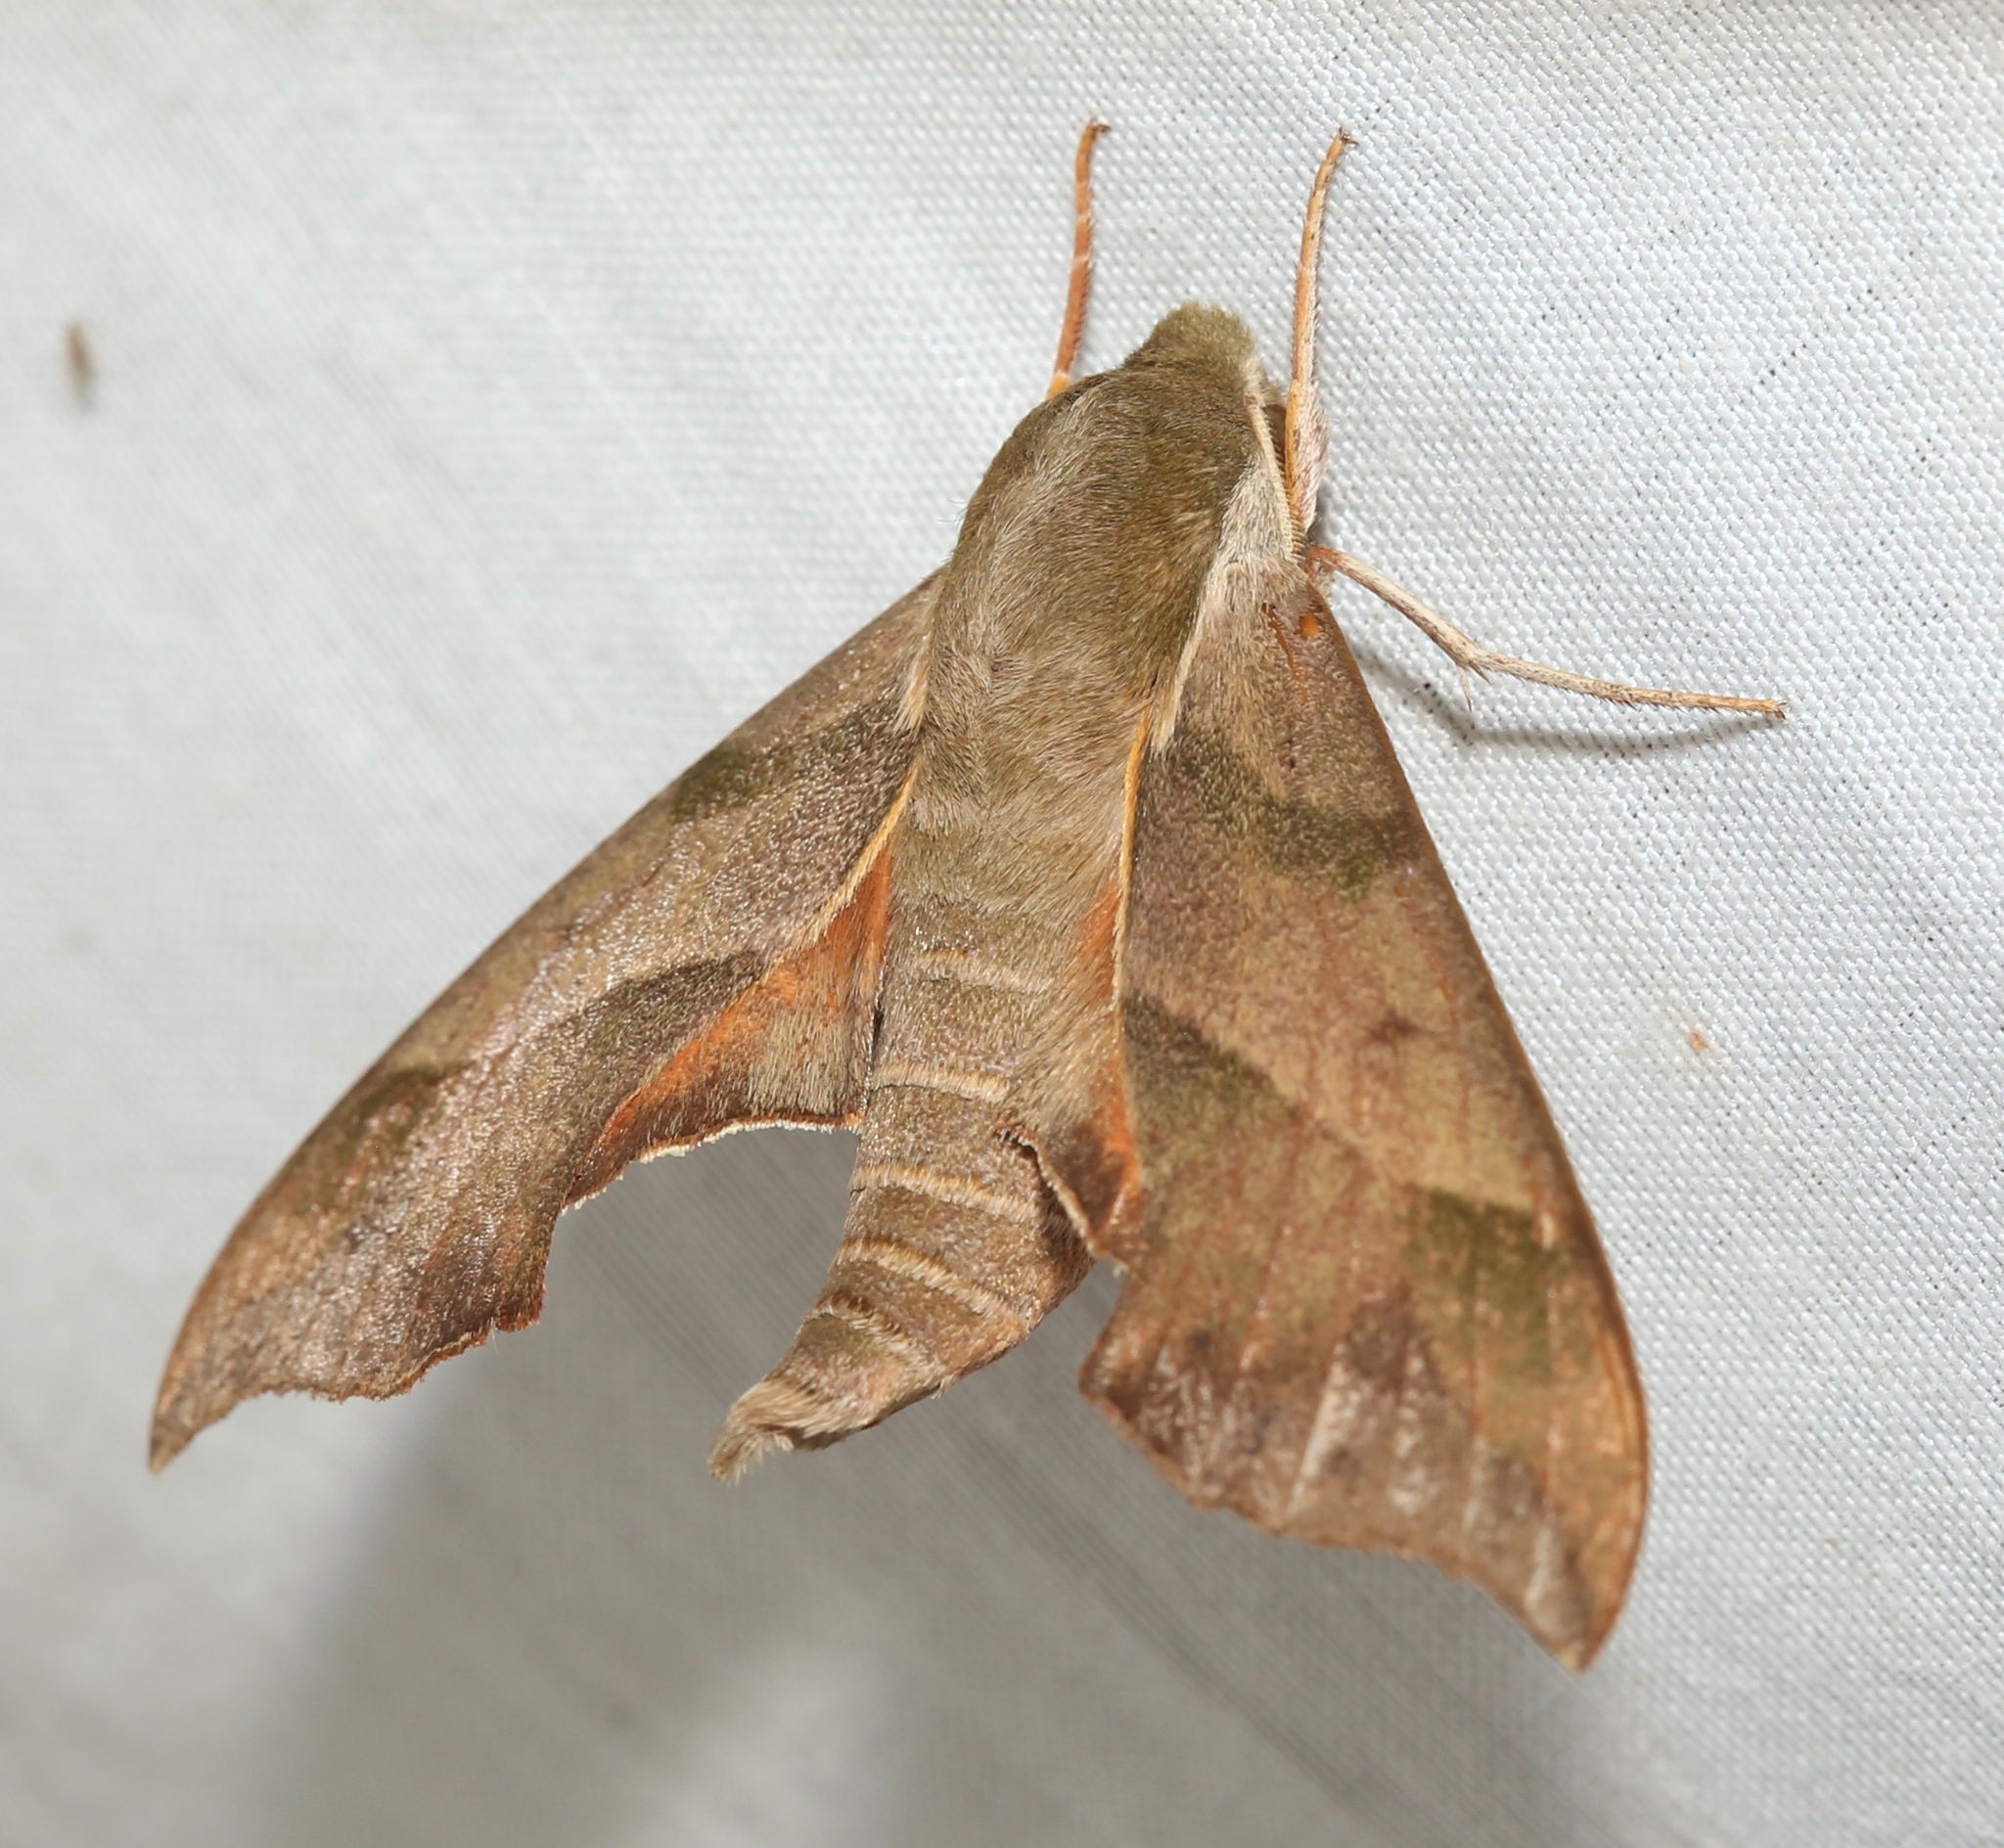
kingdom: Animalia
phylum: Arthropoda
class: Insecta
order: Lepidoptera
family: Sphingidae
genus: Darapsa
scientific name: Darapsa myron
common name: Hog sphinx
